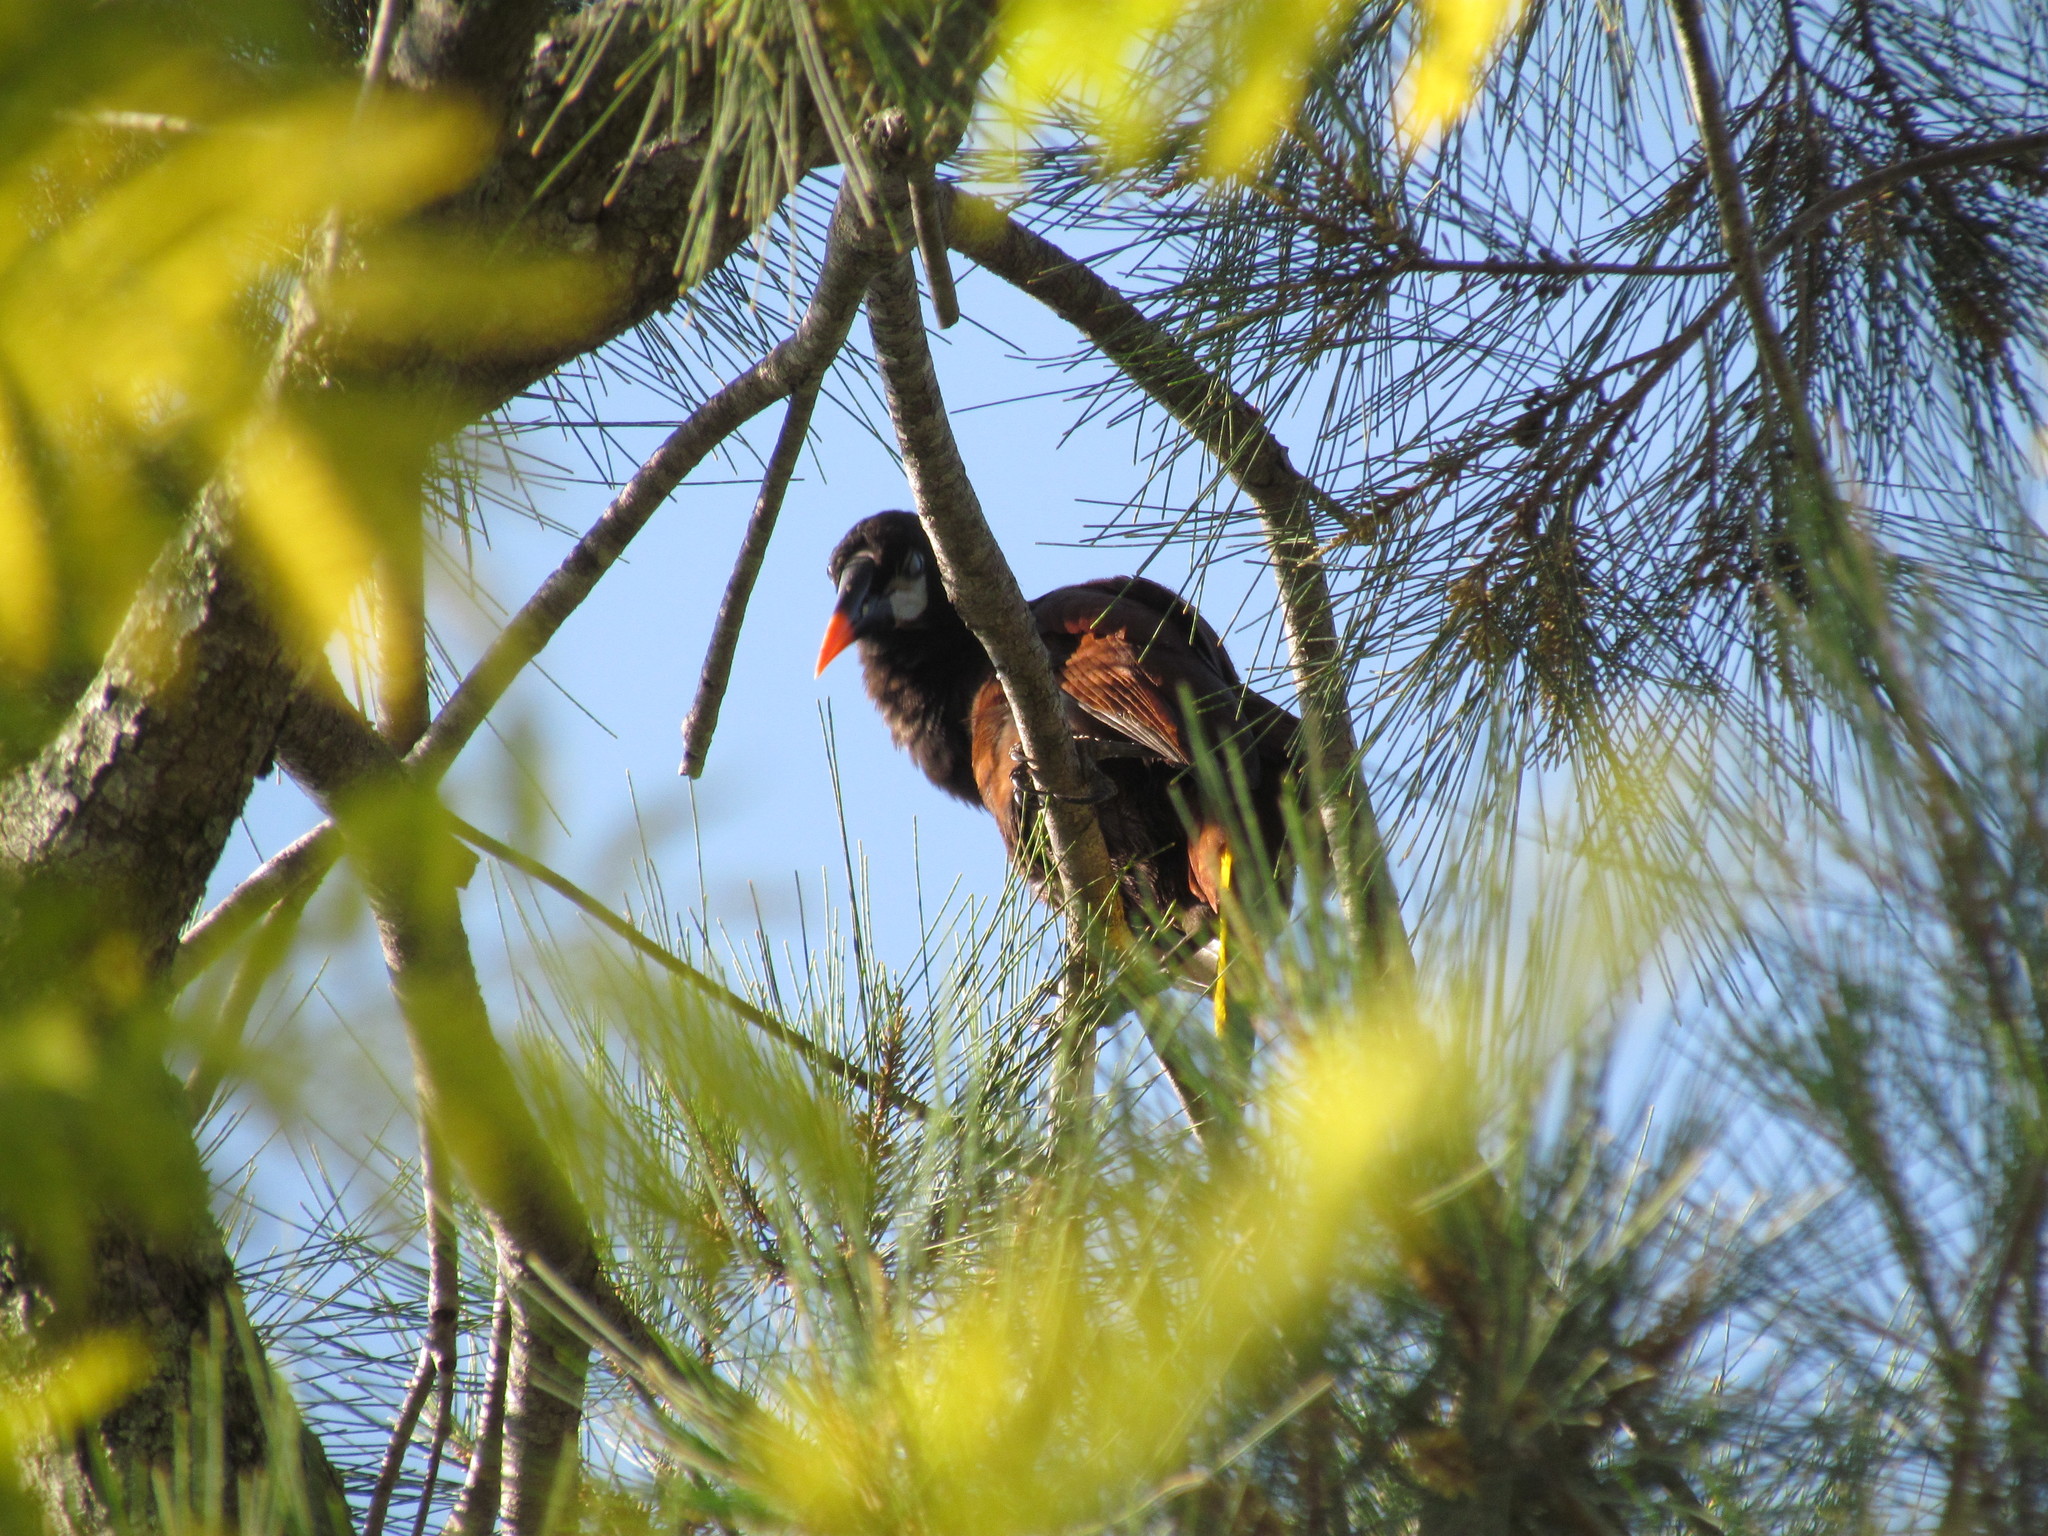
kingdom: Animalia
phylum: Chordata
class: Aves
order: Passeriformes
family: Icteridae
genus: Psarocolius
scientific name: Psarocolius montezuma
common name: Montezuma oropendola
